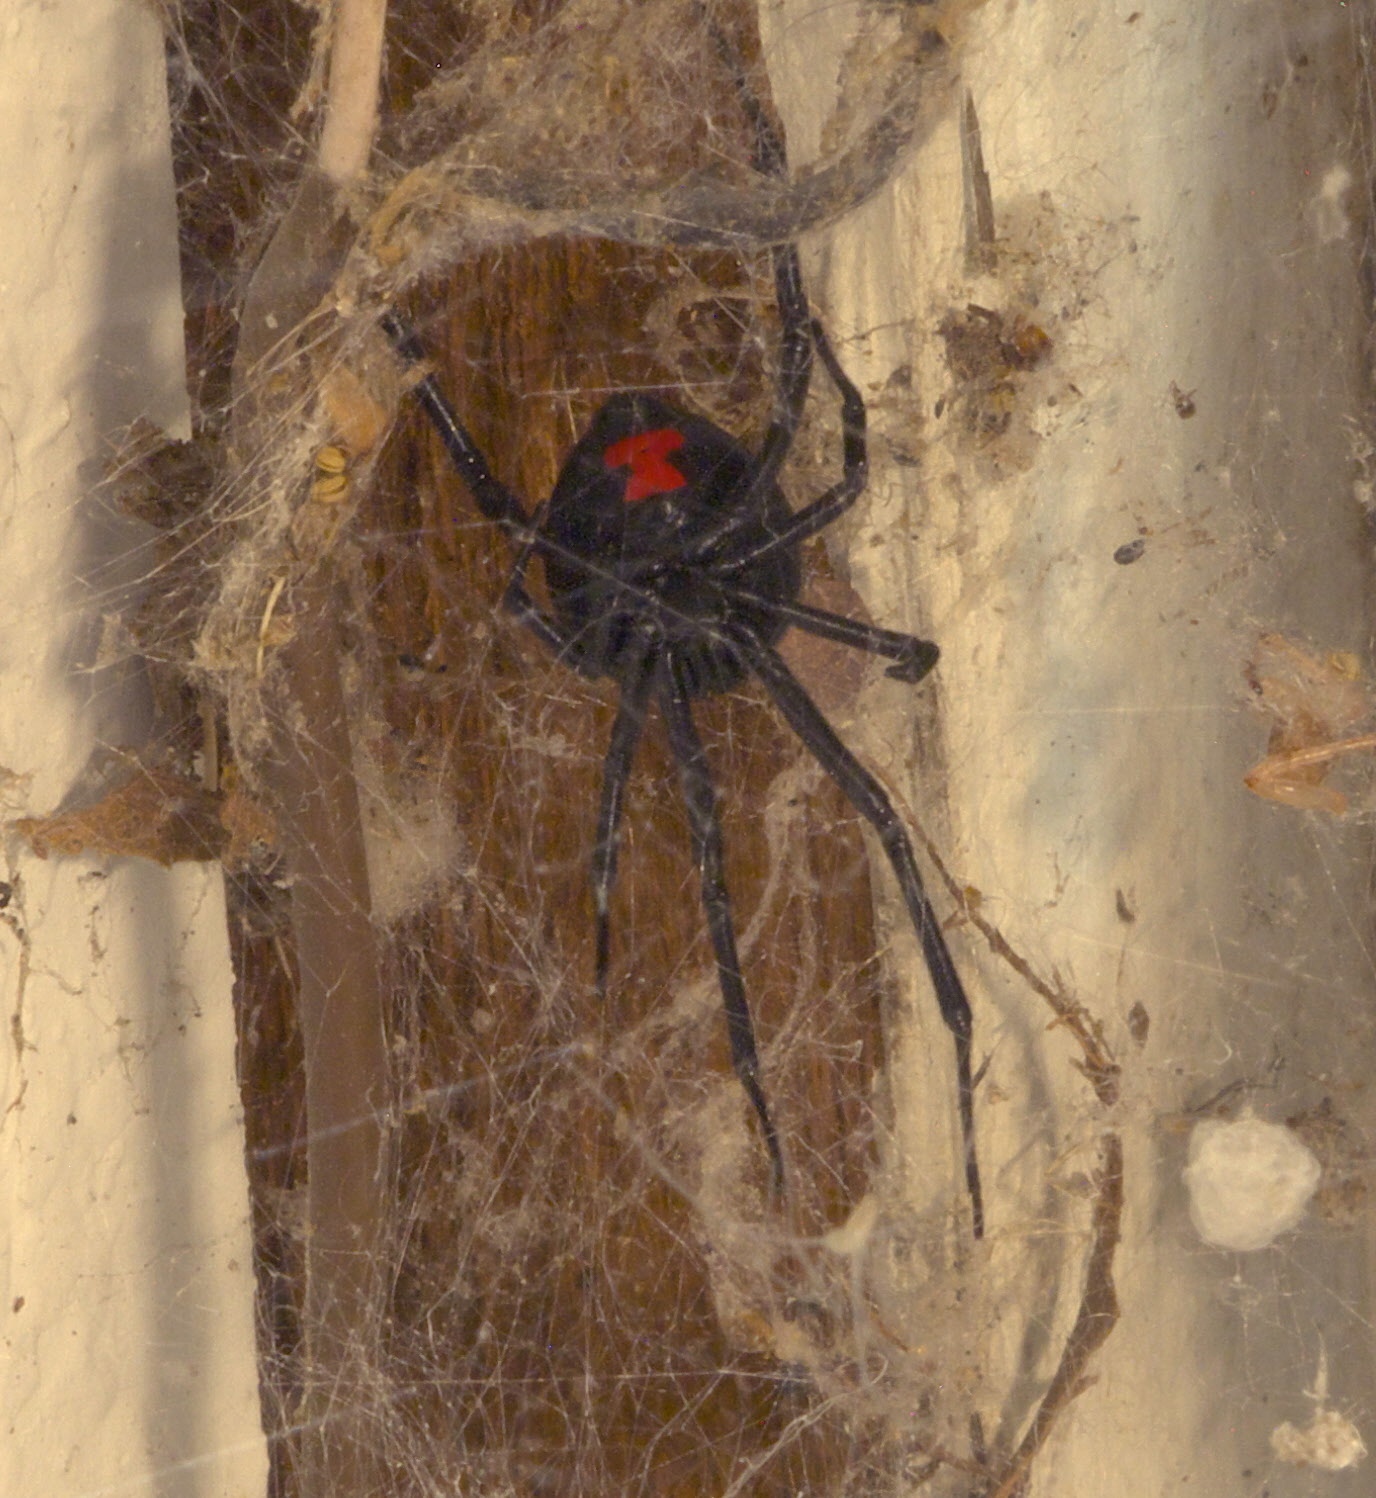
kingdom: Animalia
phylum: Arthropoda
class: Arachnida
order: Araneae
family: Theridiidae
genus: Latrodectus
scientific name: Latrodectus mactans
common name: Cobweb spiders
